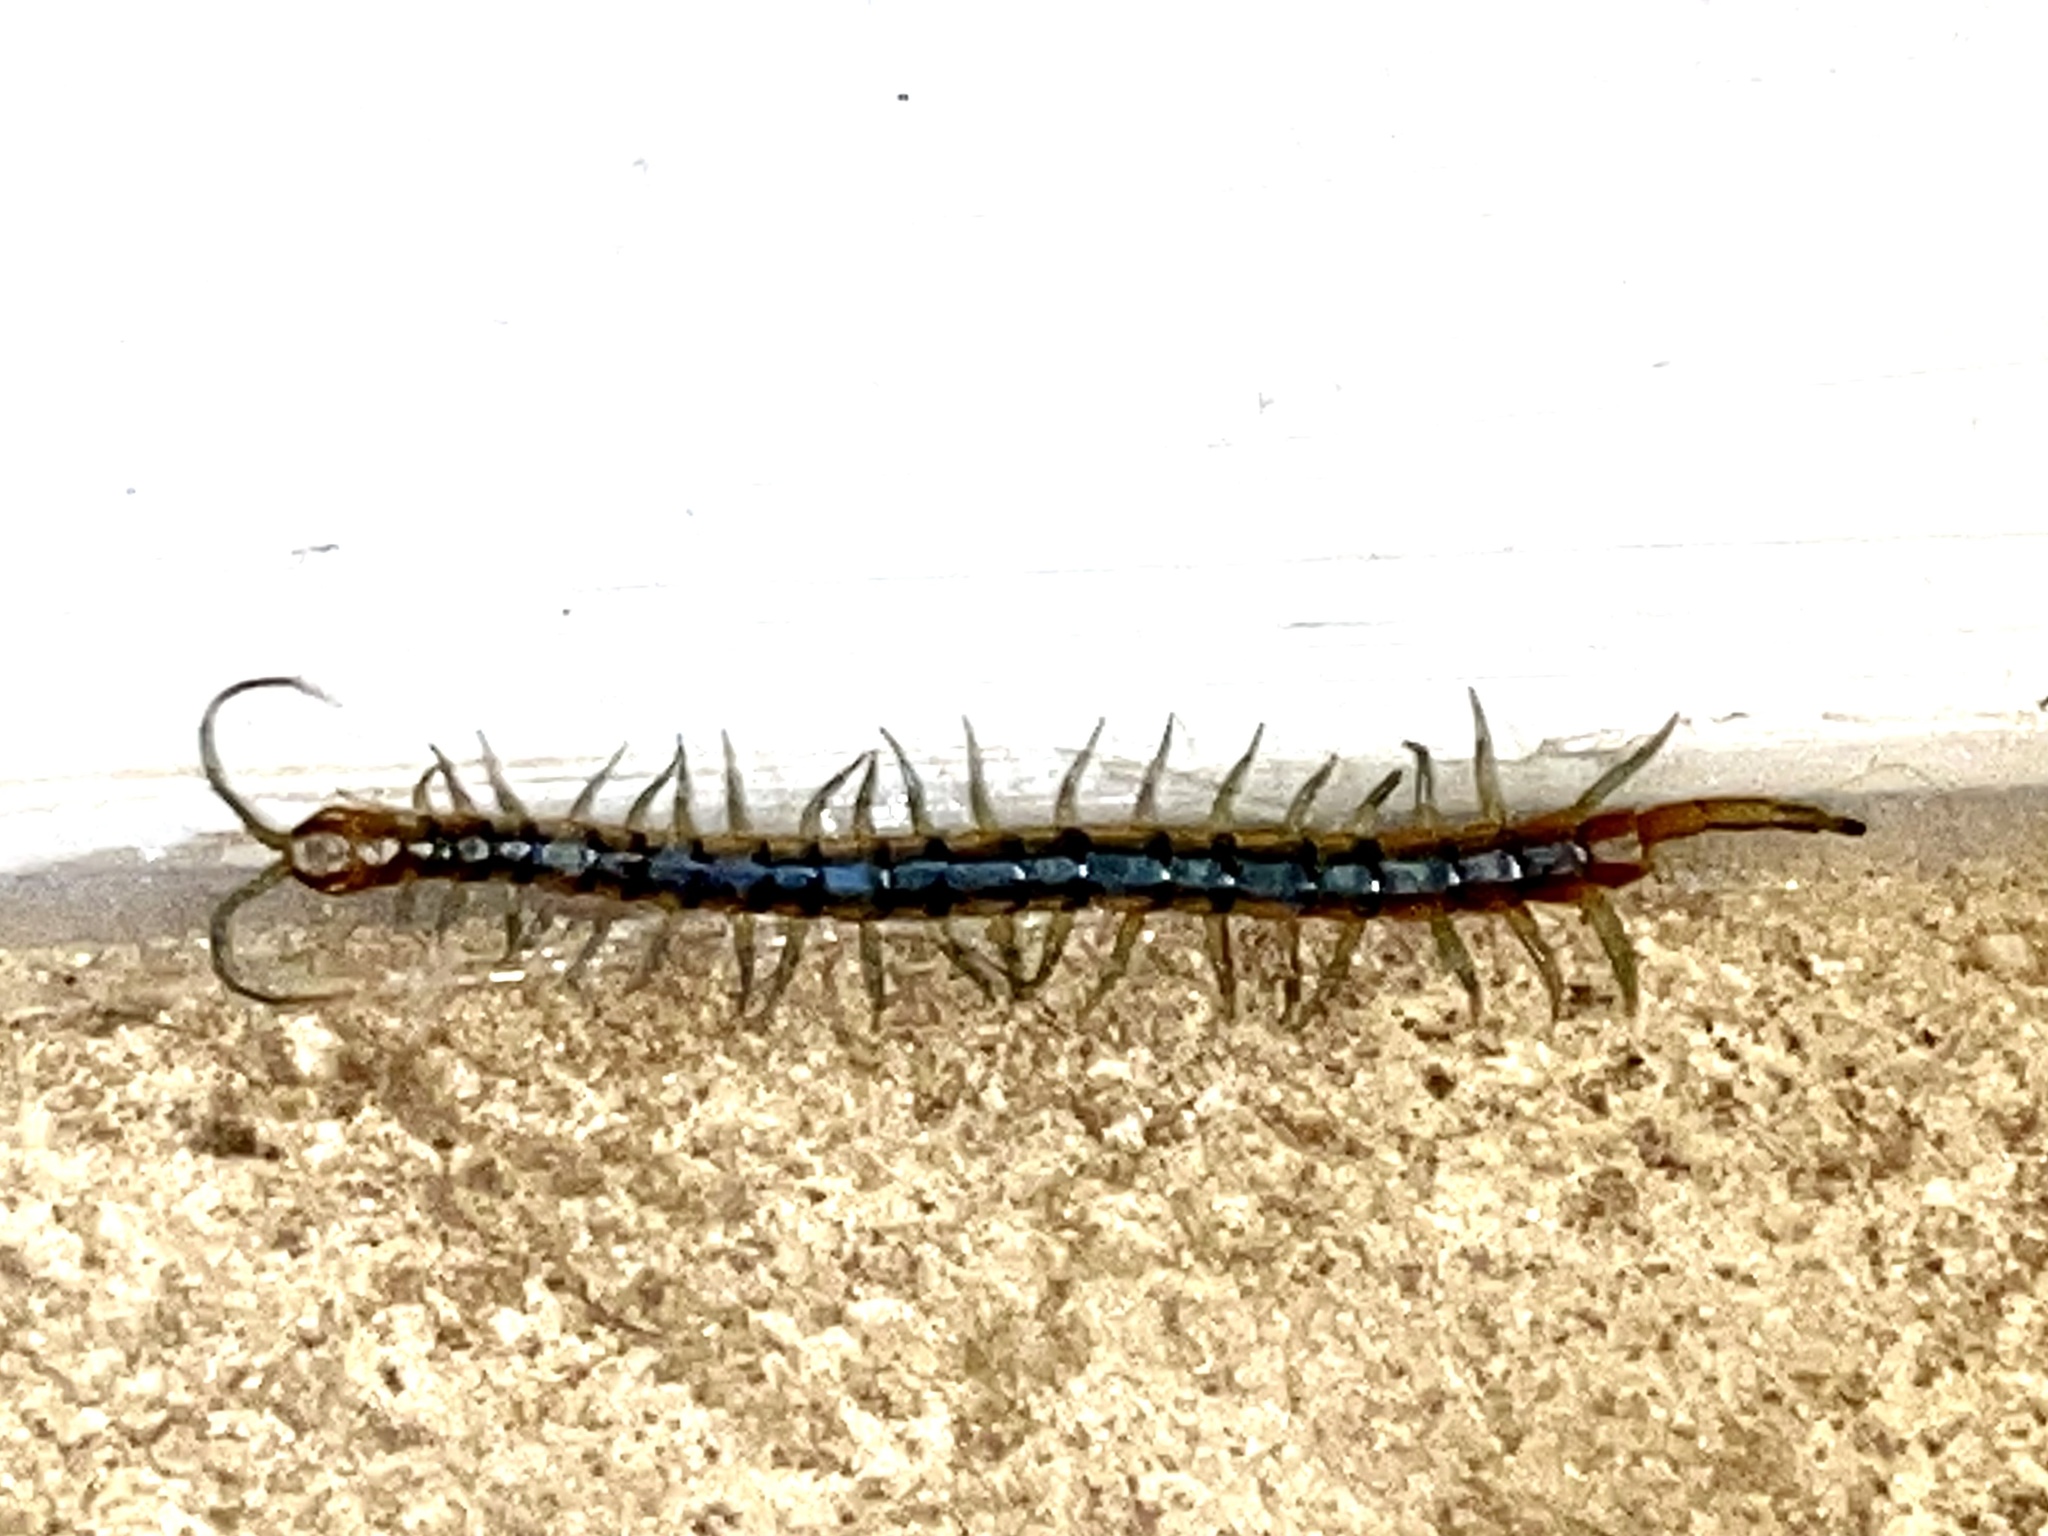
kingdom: Animalia
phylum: Arthropoda
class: Chilopoda
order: Scolopendromorpha
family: Scolopendridae
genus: Scolopendra
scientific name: Scolopendra polymorpha
